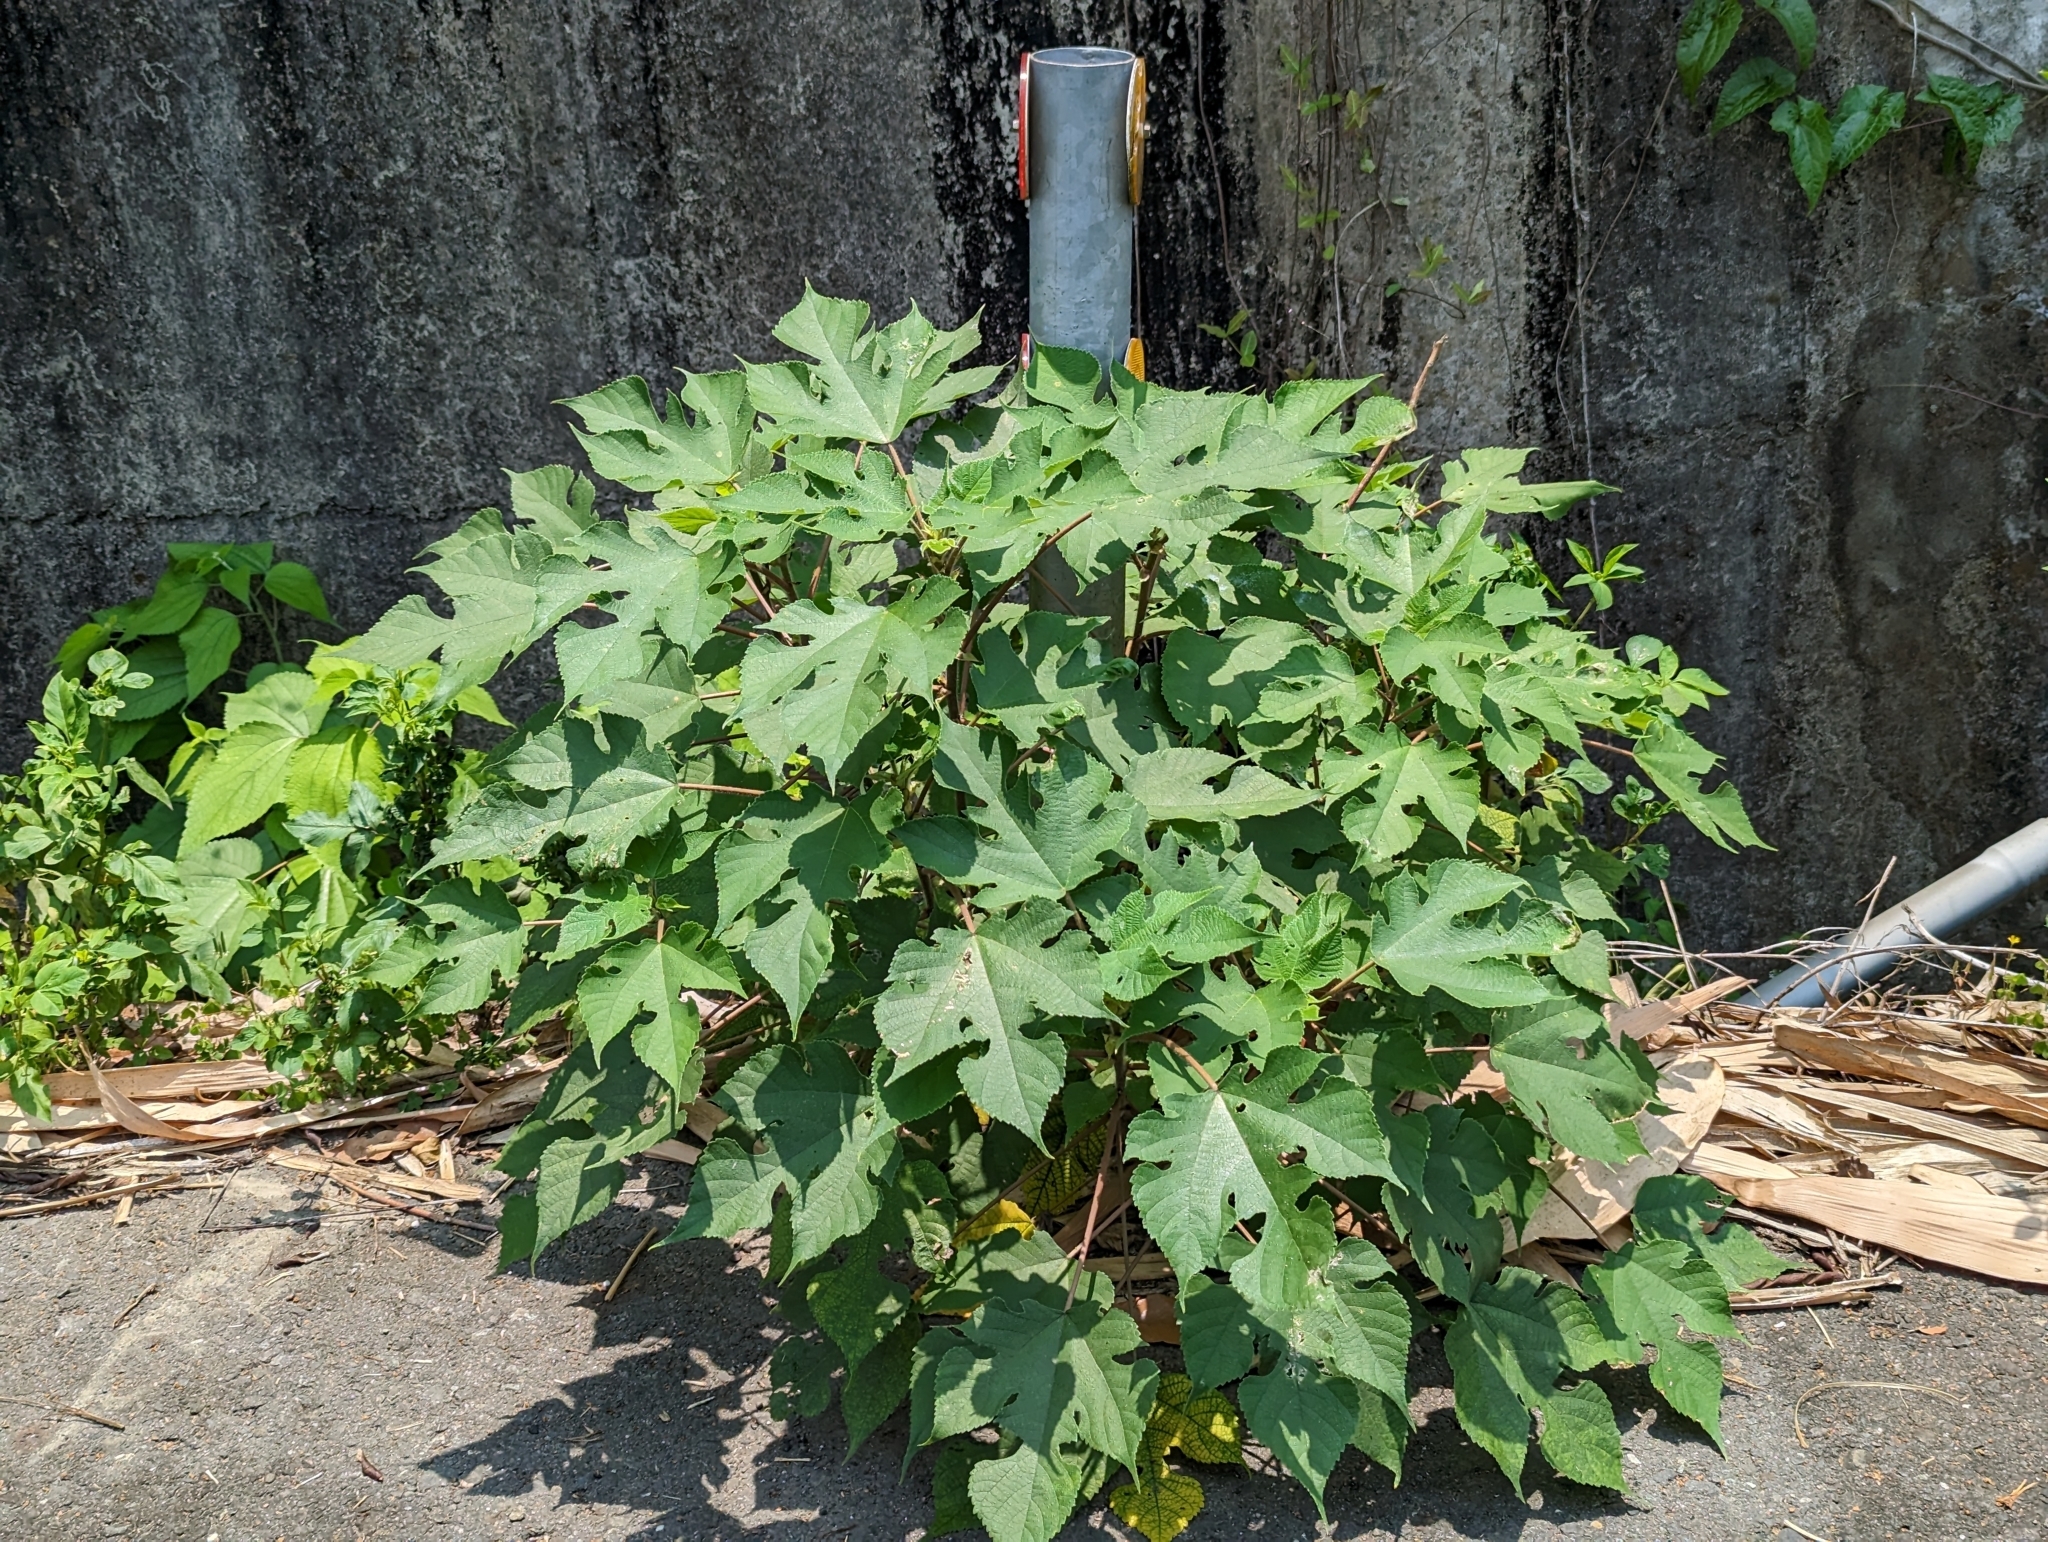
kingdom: Plantae
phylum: Tracheophyta
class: Magnoliopsida
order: Rosales
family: Moraceae
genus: Broussonetia
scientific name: Broussonetia papyrifera
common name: Paper mulberry
